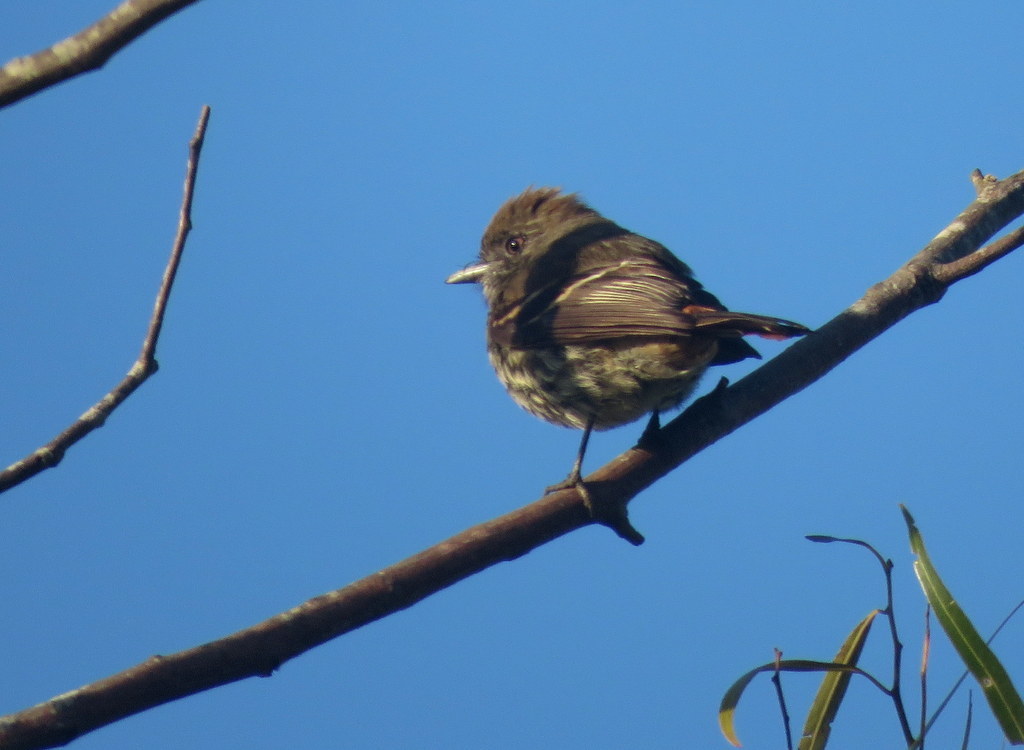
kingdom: Animalia
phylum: Chordata
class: Aves
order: Passeriformes
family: Tyrannidae
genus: Knipolegus
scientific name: Knipolegus cyanirostris
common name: Blue-billed black tyrant
